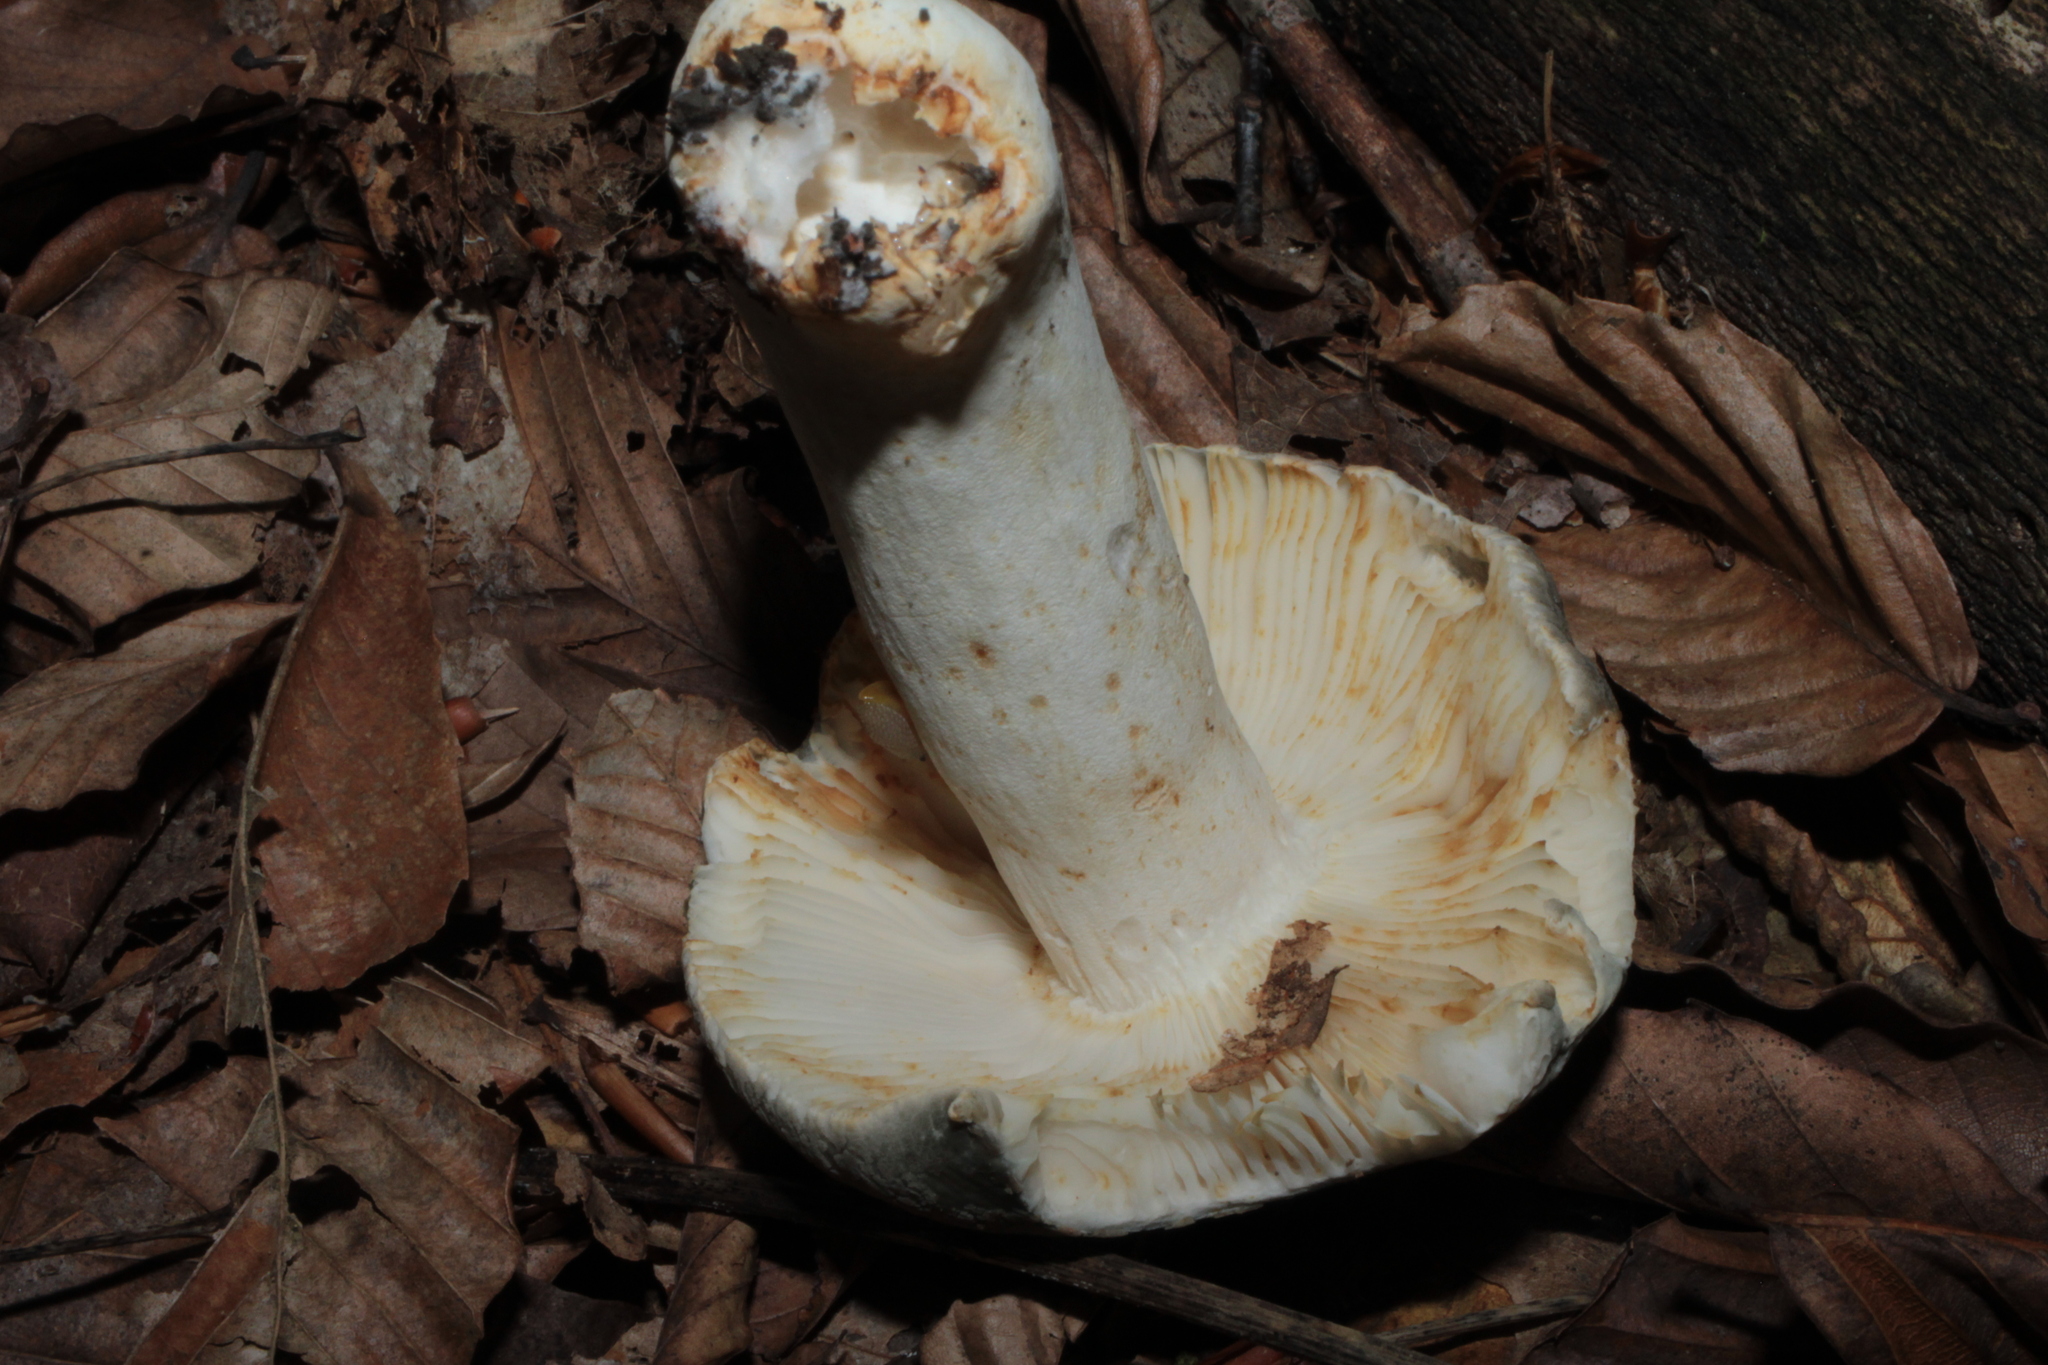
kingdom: Fungi
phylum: Basidiomycota
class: Agaricomycetes
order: Russulales
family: Russulaceae
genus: Russula
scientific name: Russula parvovirescens
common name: Blue-green cracking russula
